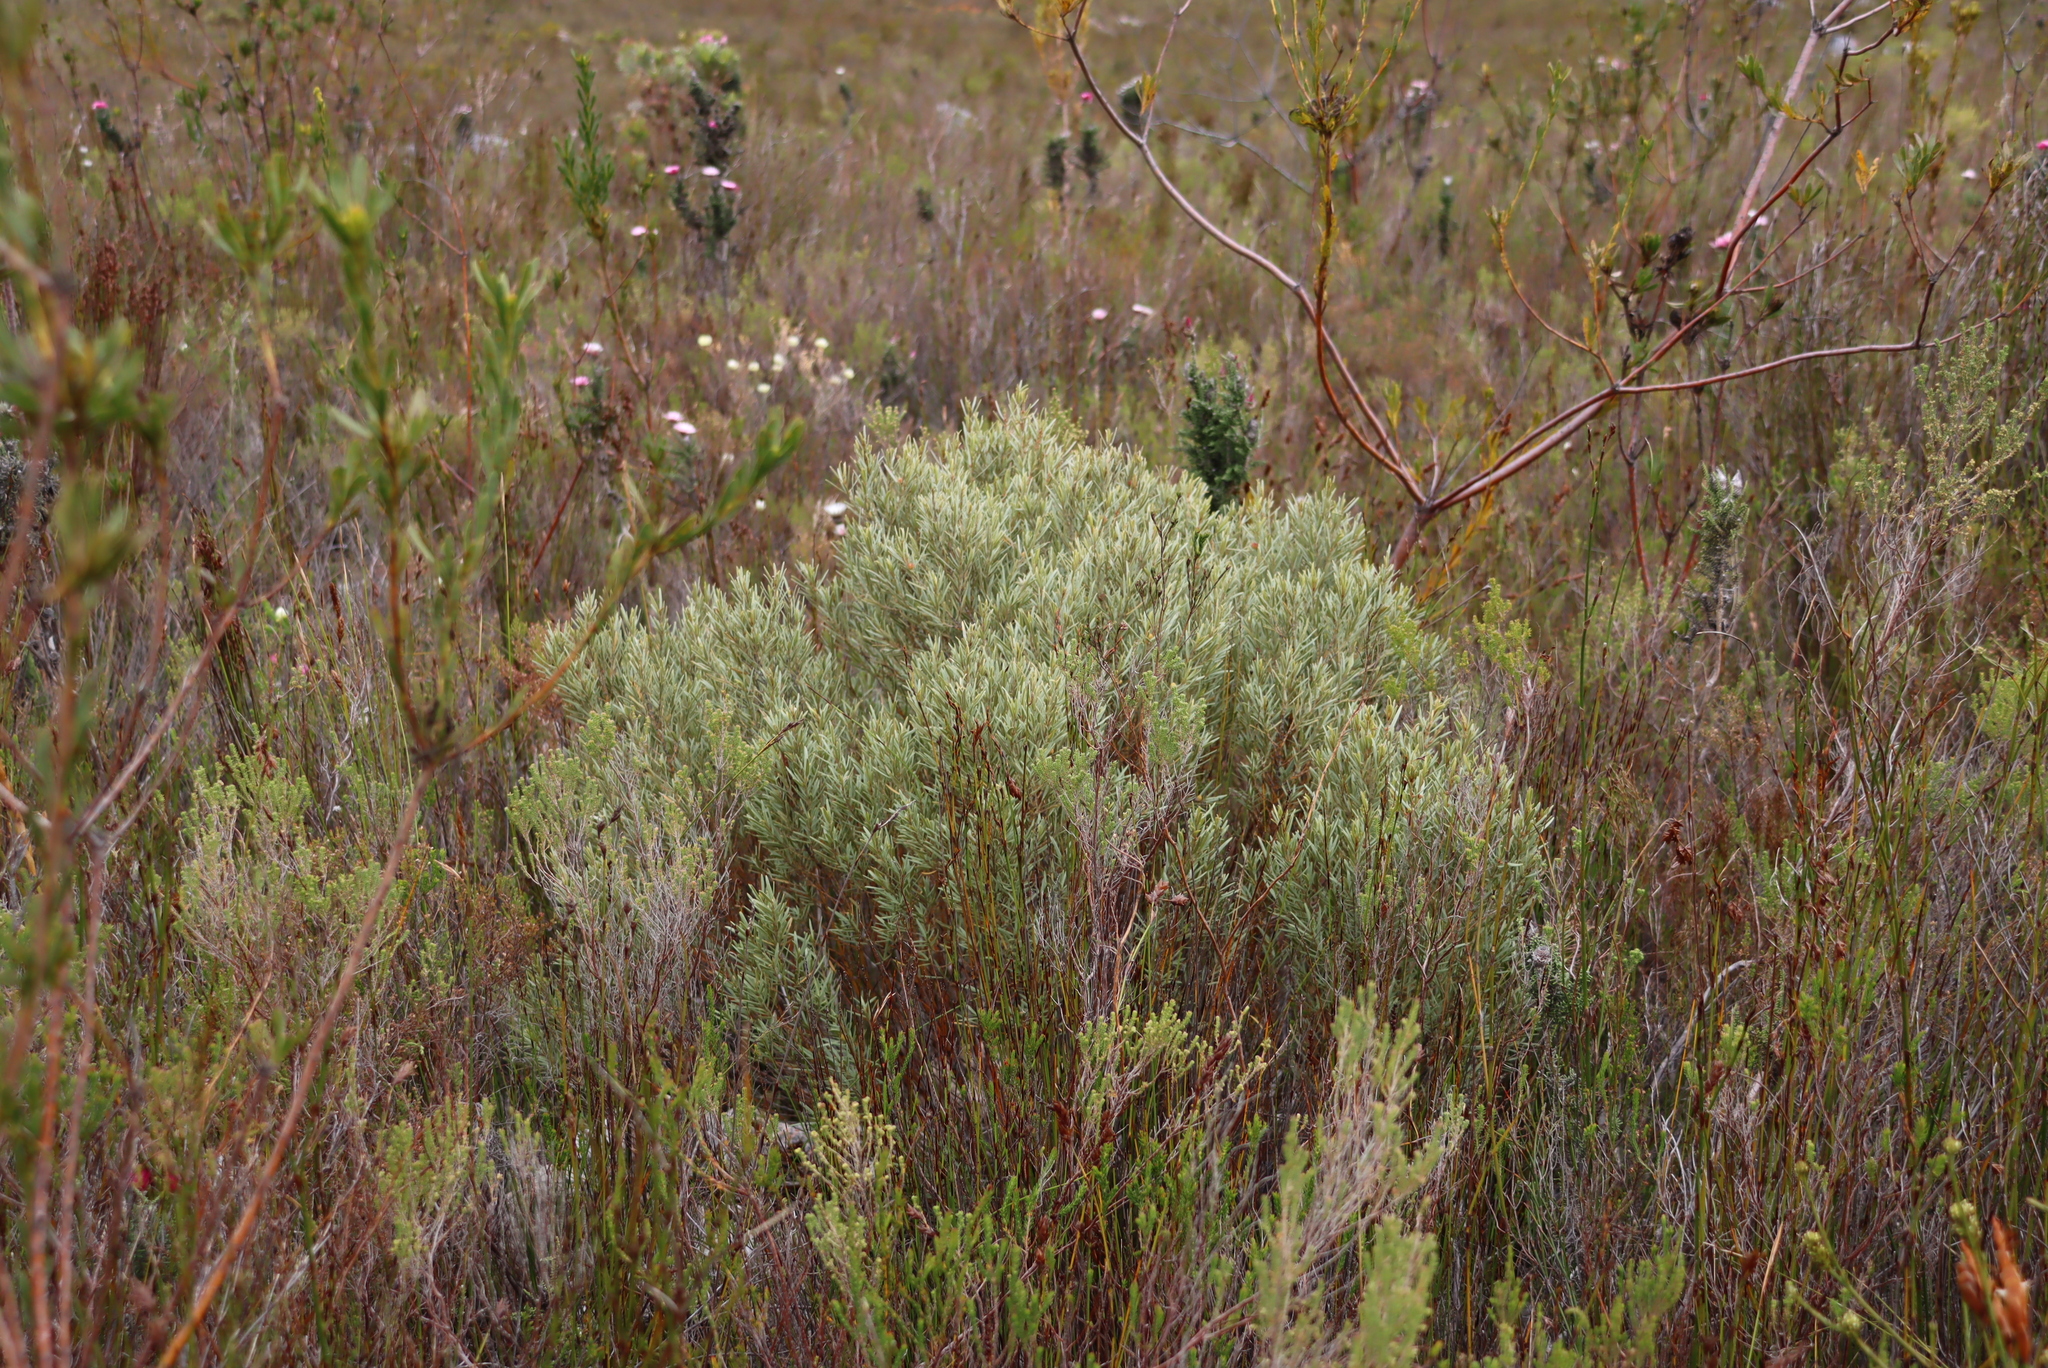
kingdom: Plantae
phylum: Tracheophyta
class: Magnoliopsida
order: Cornales
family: Grubbiaceae
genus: Grubbia
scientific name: Grubbia tomentosa
